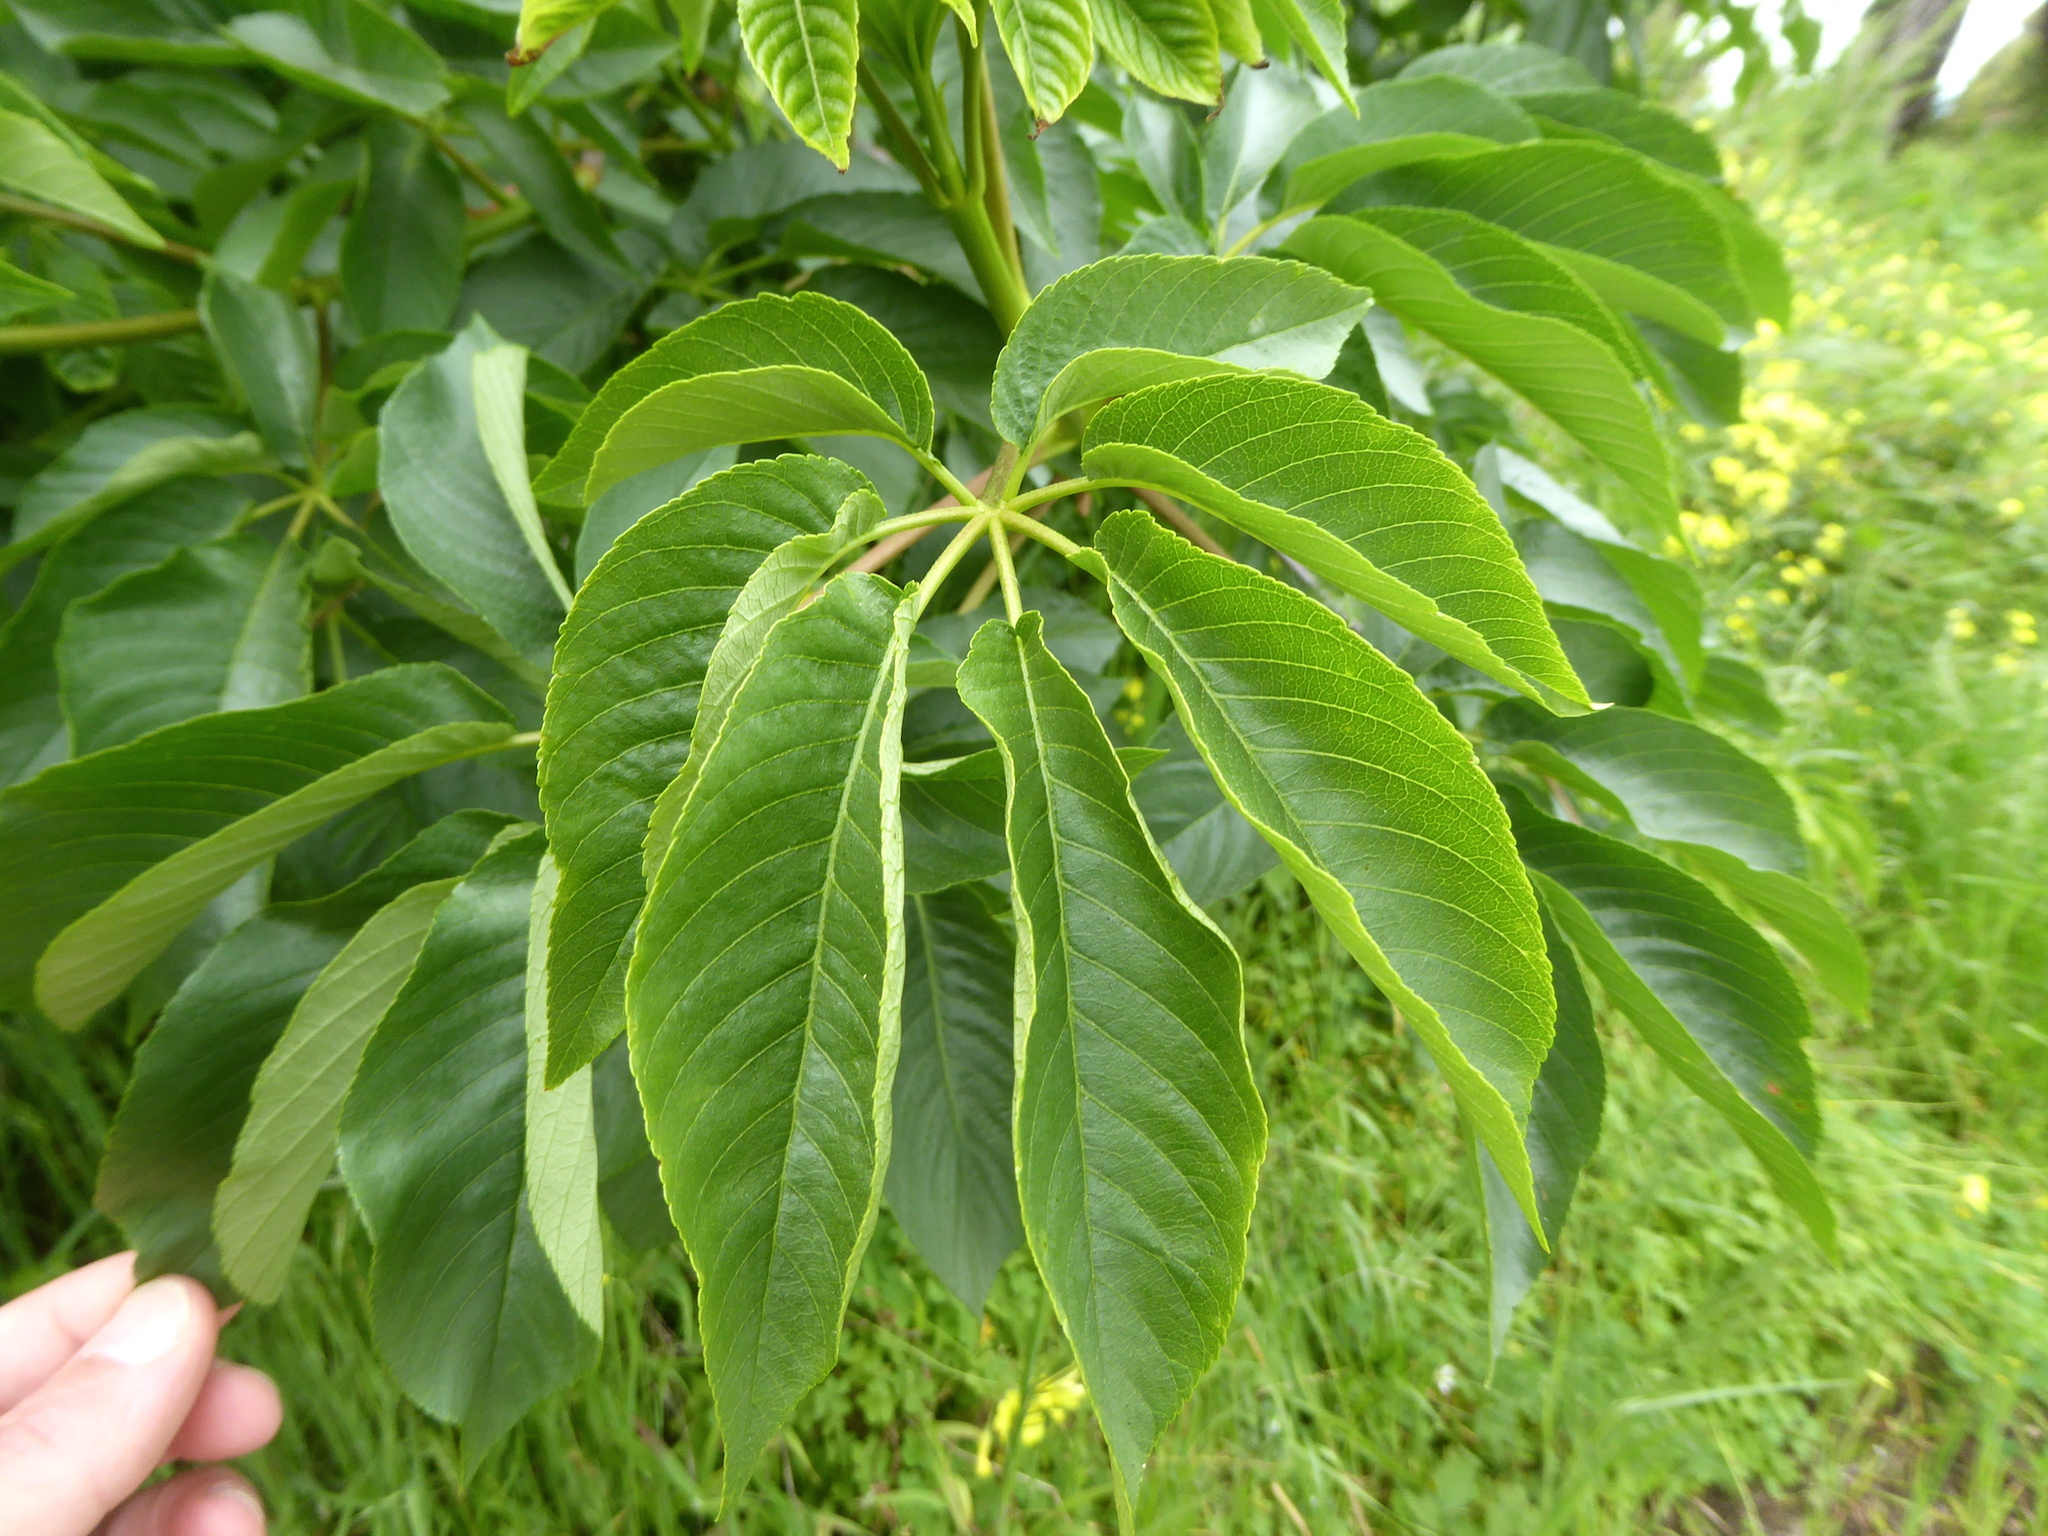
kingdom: Plantae
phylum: Tracheophyta
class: Magnoliopsida
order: Sapindales
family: Sapindaceae
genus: Aesculus
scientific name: Aesculus californica
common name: California buckeye
